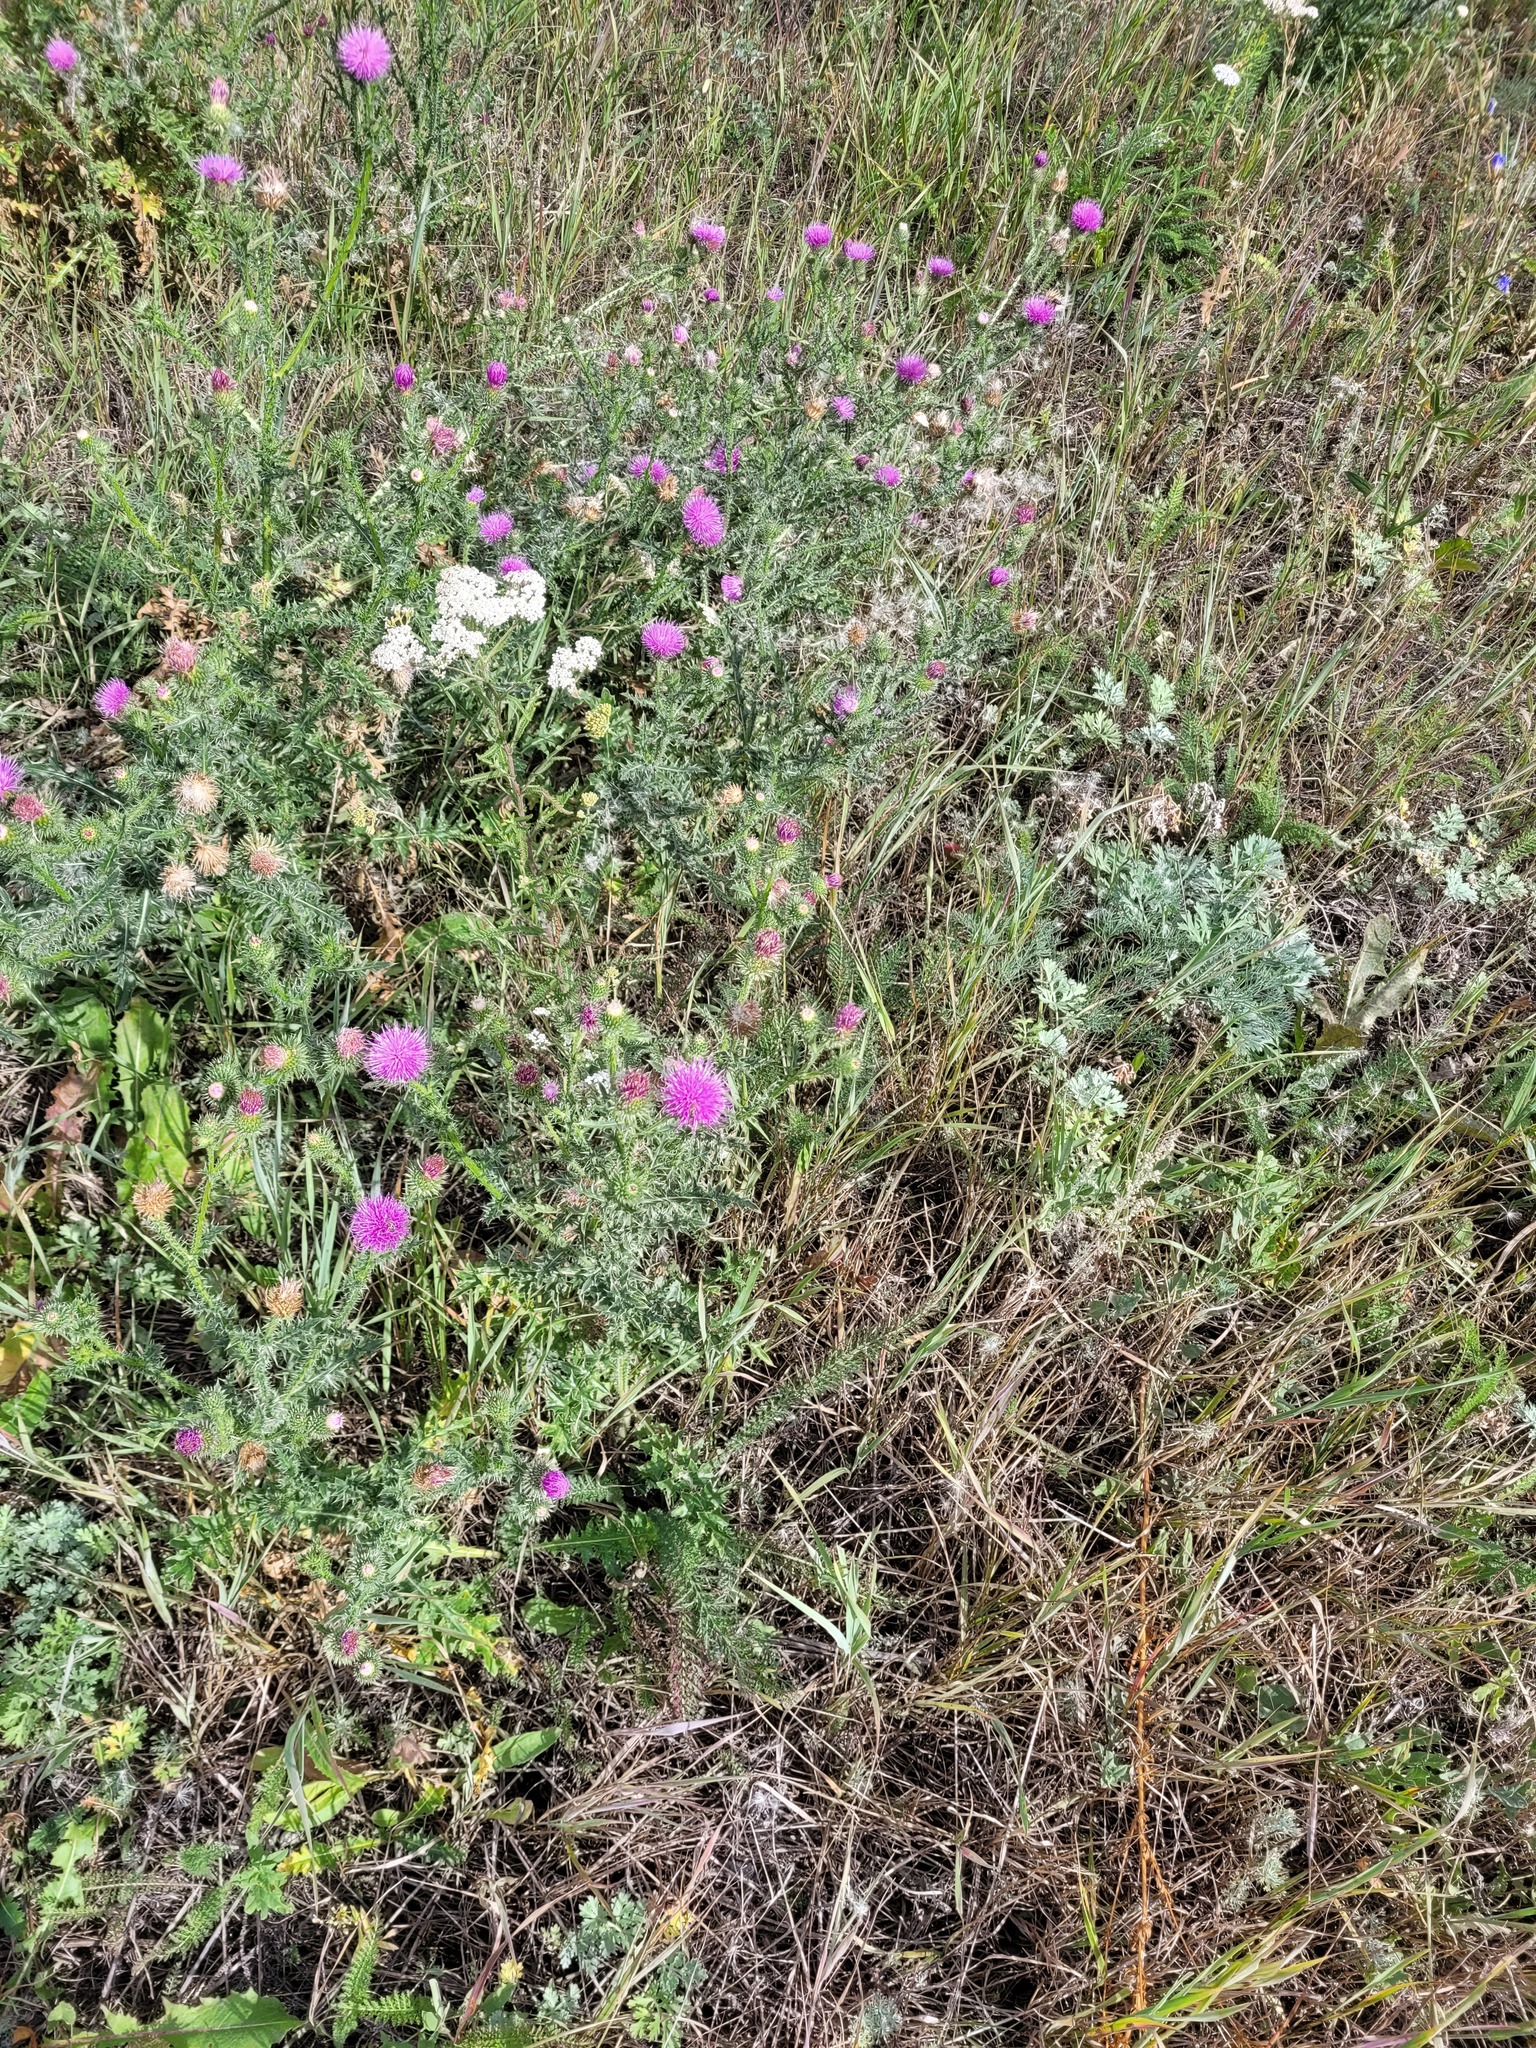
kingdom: Plantae
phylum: Tracheophyta
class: Magnoliopsida
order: Asterales
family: Asteraceae
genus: Carduus
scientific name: Carduus acanthoides
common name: Plumeless thistle
